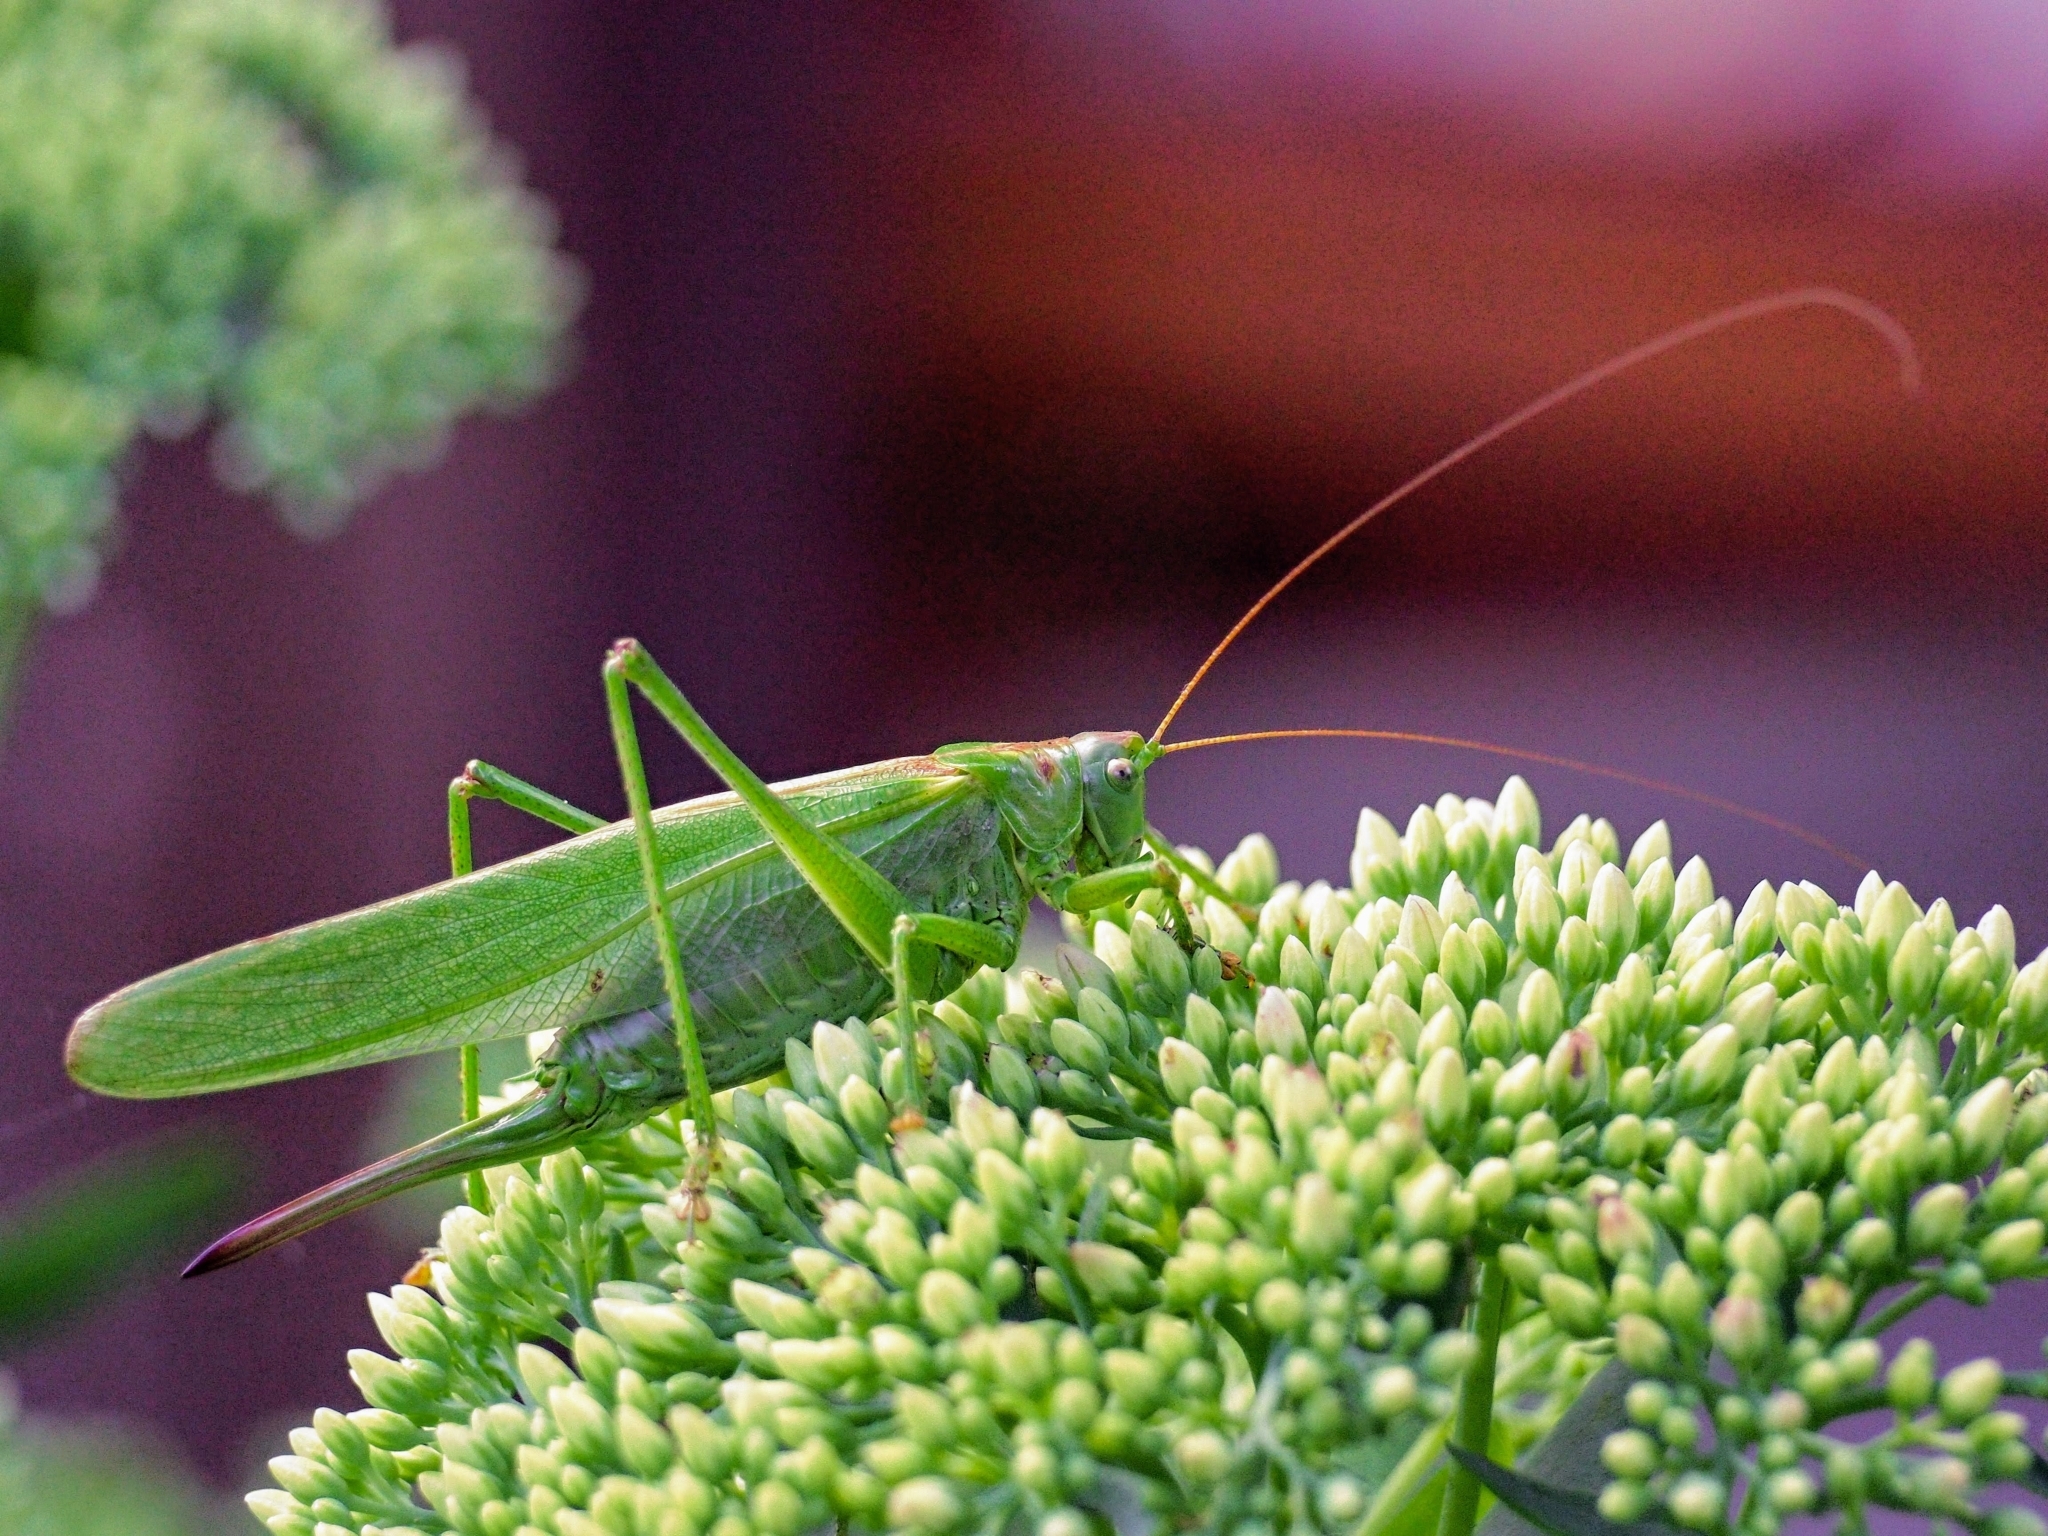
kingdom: Animalia
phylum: Arthropoda
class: Insecta
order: Orthoptera
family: Tettigoniidae
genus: Tettigonia
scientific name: Tettigonia viridissima
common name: Great green bush-cricket
